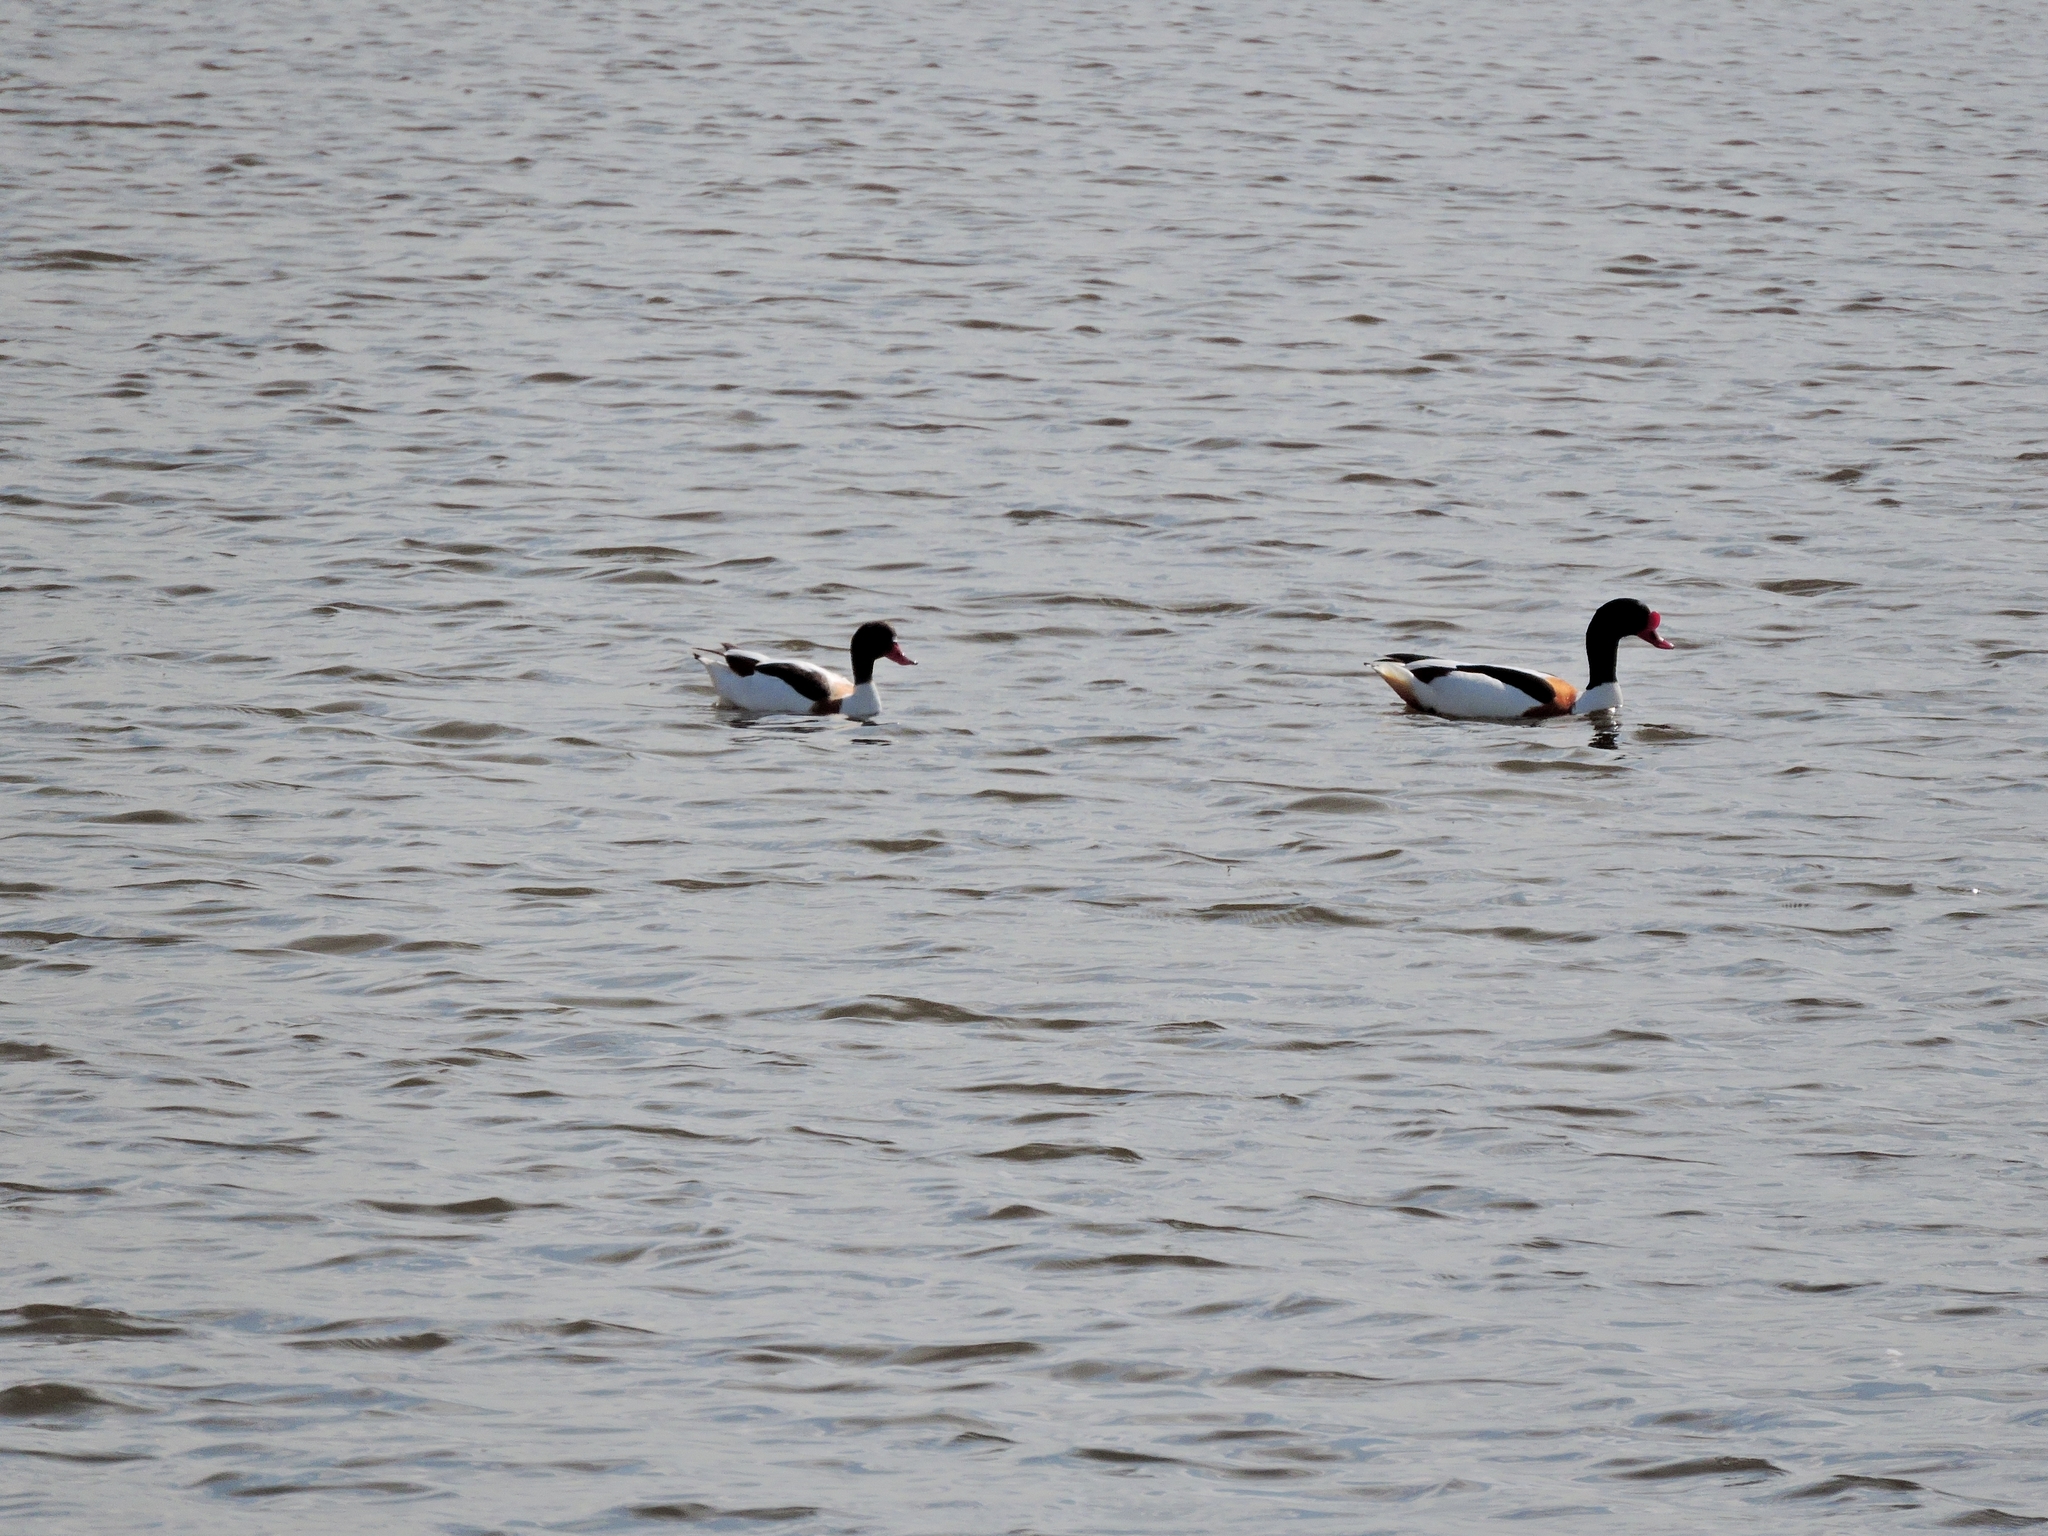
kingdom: Animalia
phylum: Chordata
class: Aves
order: Anseriformes
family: Anatidae
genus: Tadorna
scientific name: Tadorna tadorna
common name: Common shelduck
